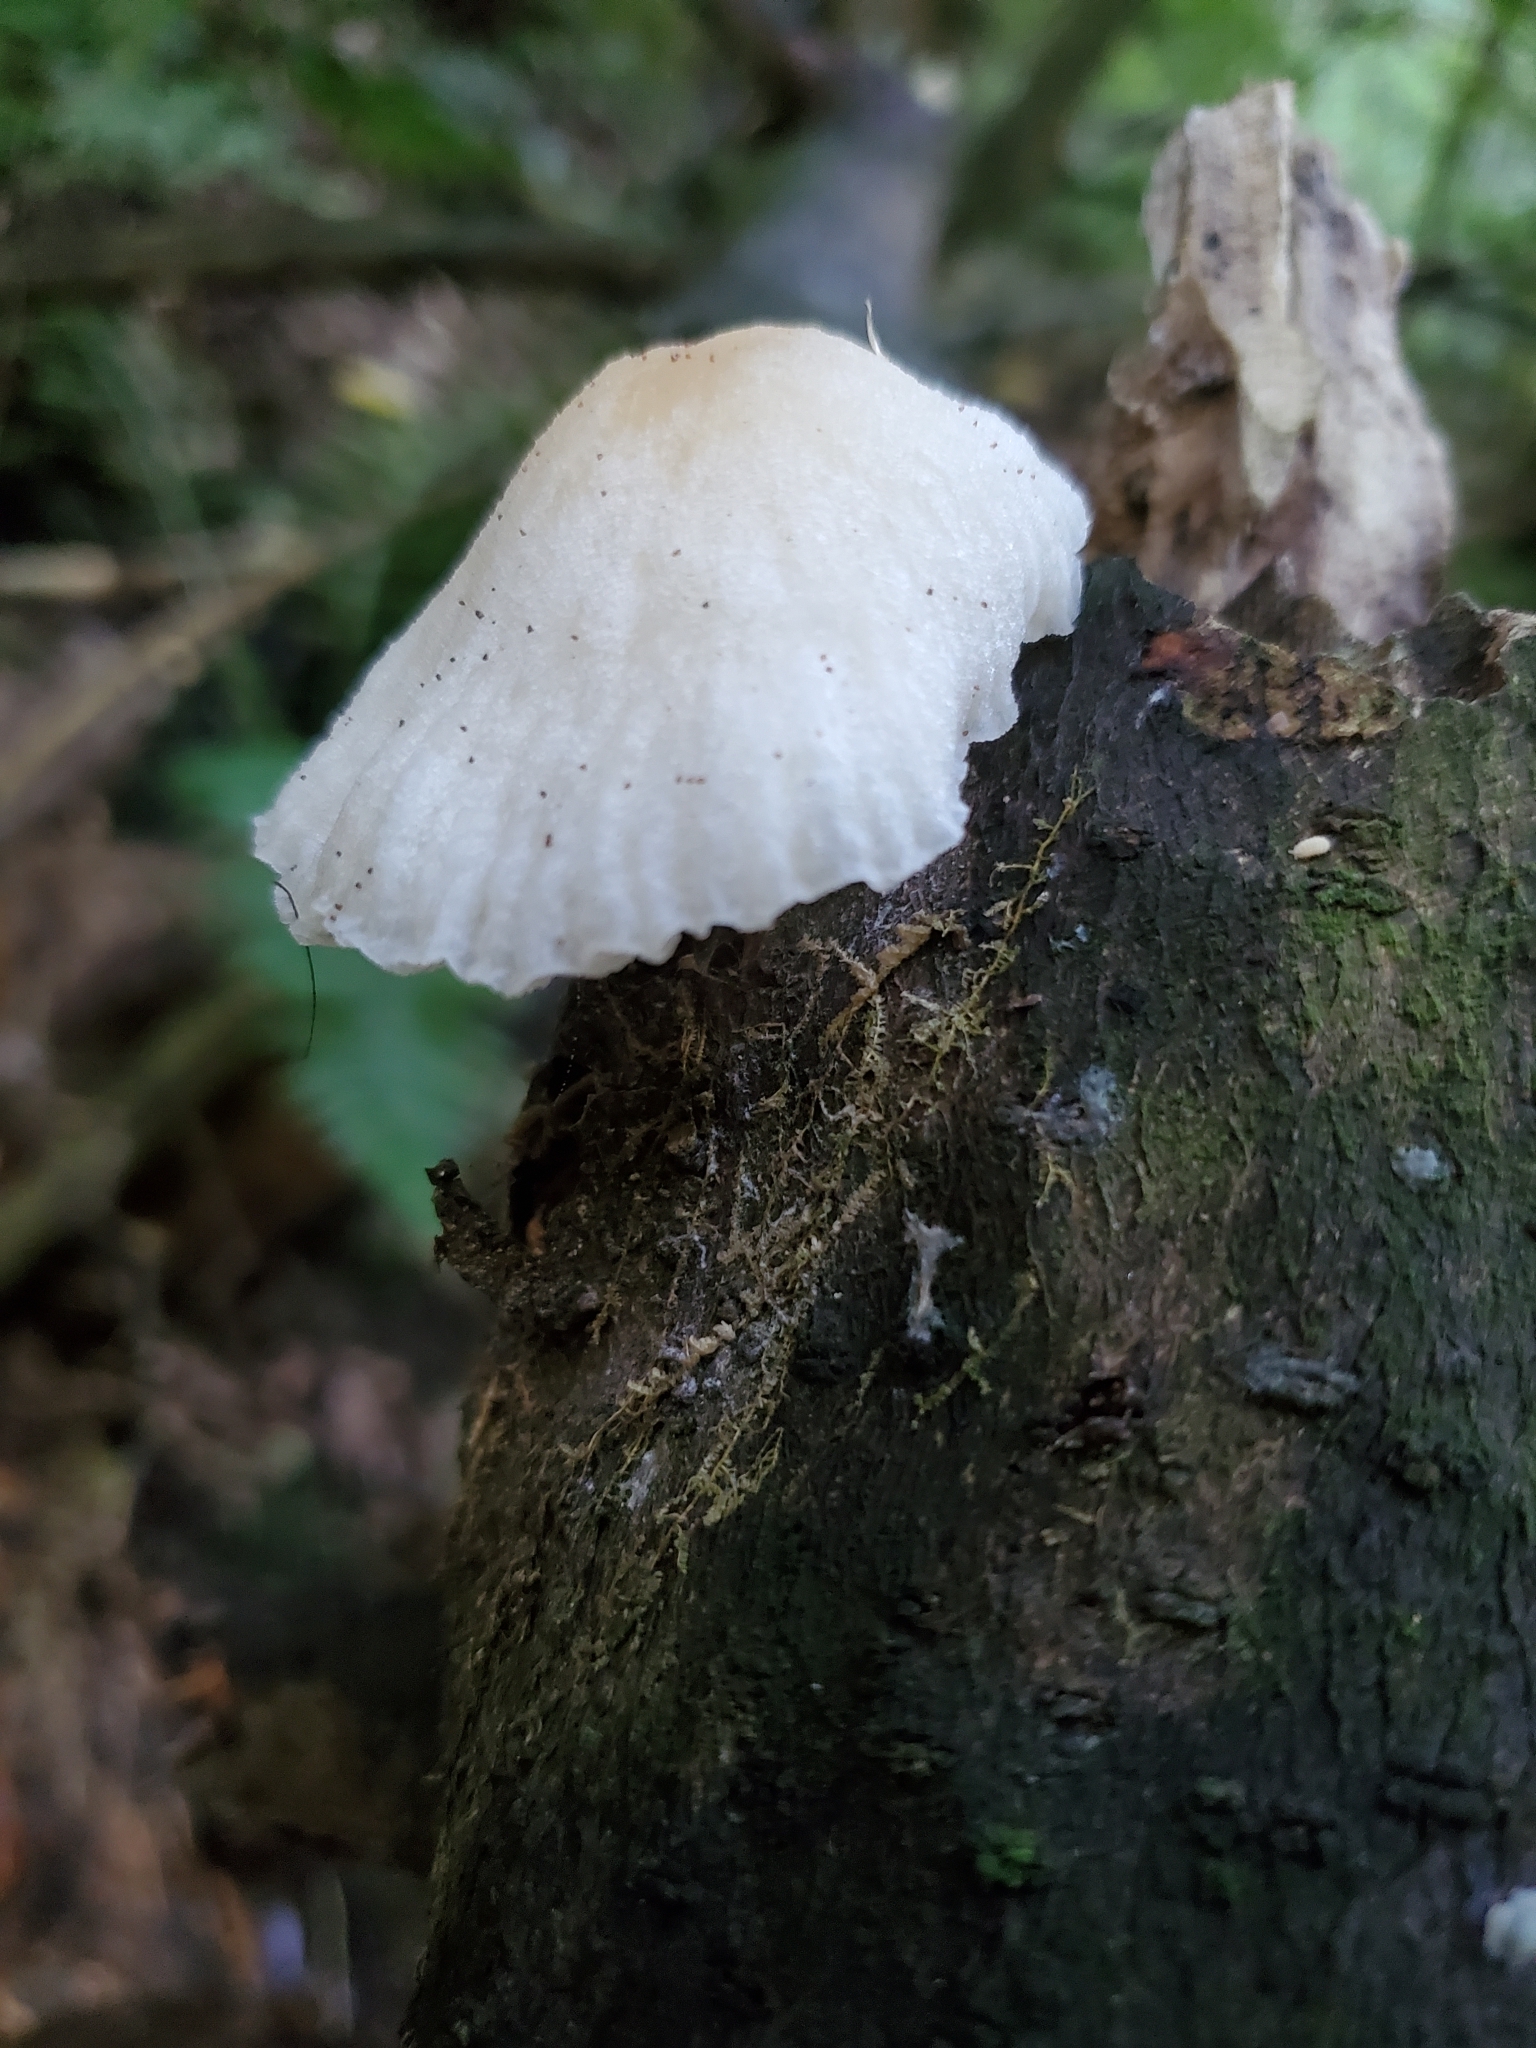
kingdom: Fungi
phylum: Basidiomycota
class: Agaricomycetes
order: Agaricales
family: Physalacriaceae
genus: Oudemansiella
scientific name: Oudemansiella australis
